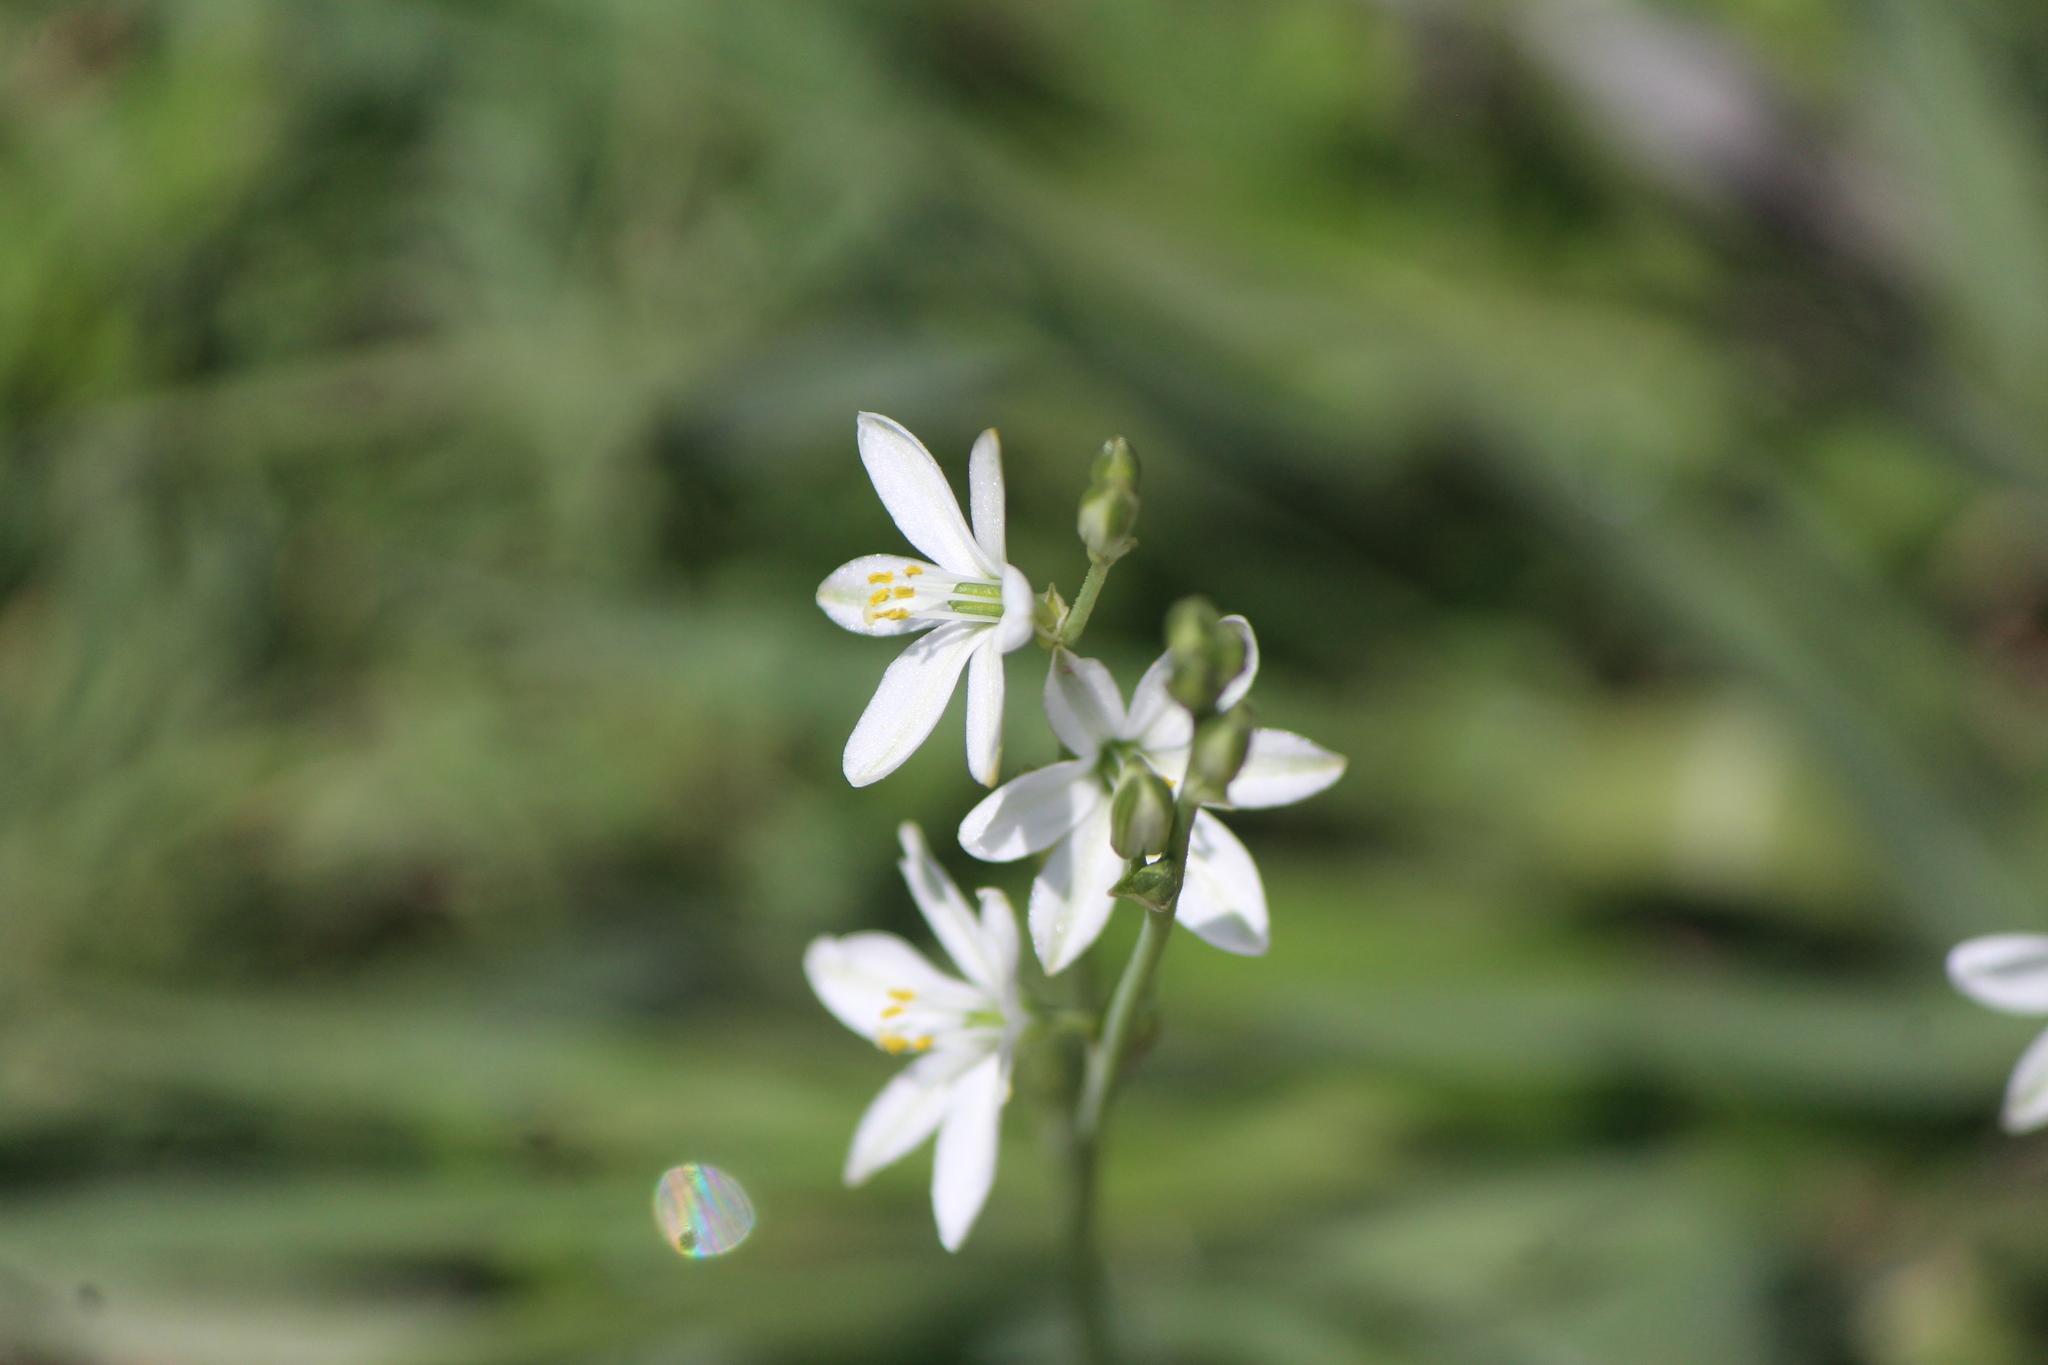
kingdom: Plantae
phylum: Tracheophyta
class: Liliopsida
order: Asparagales
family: Asparagaceae
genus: Echeandia
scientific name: Echeandia nana
